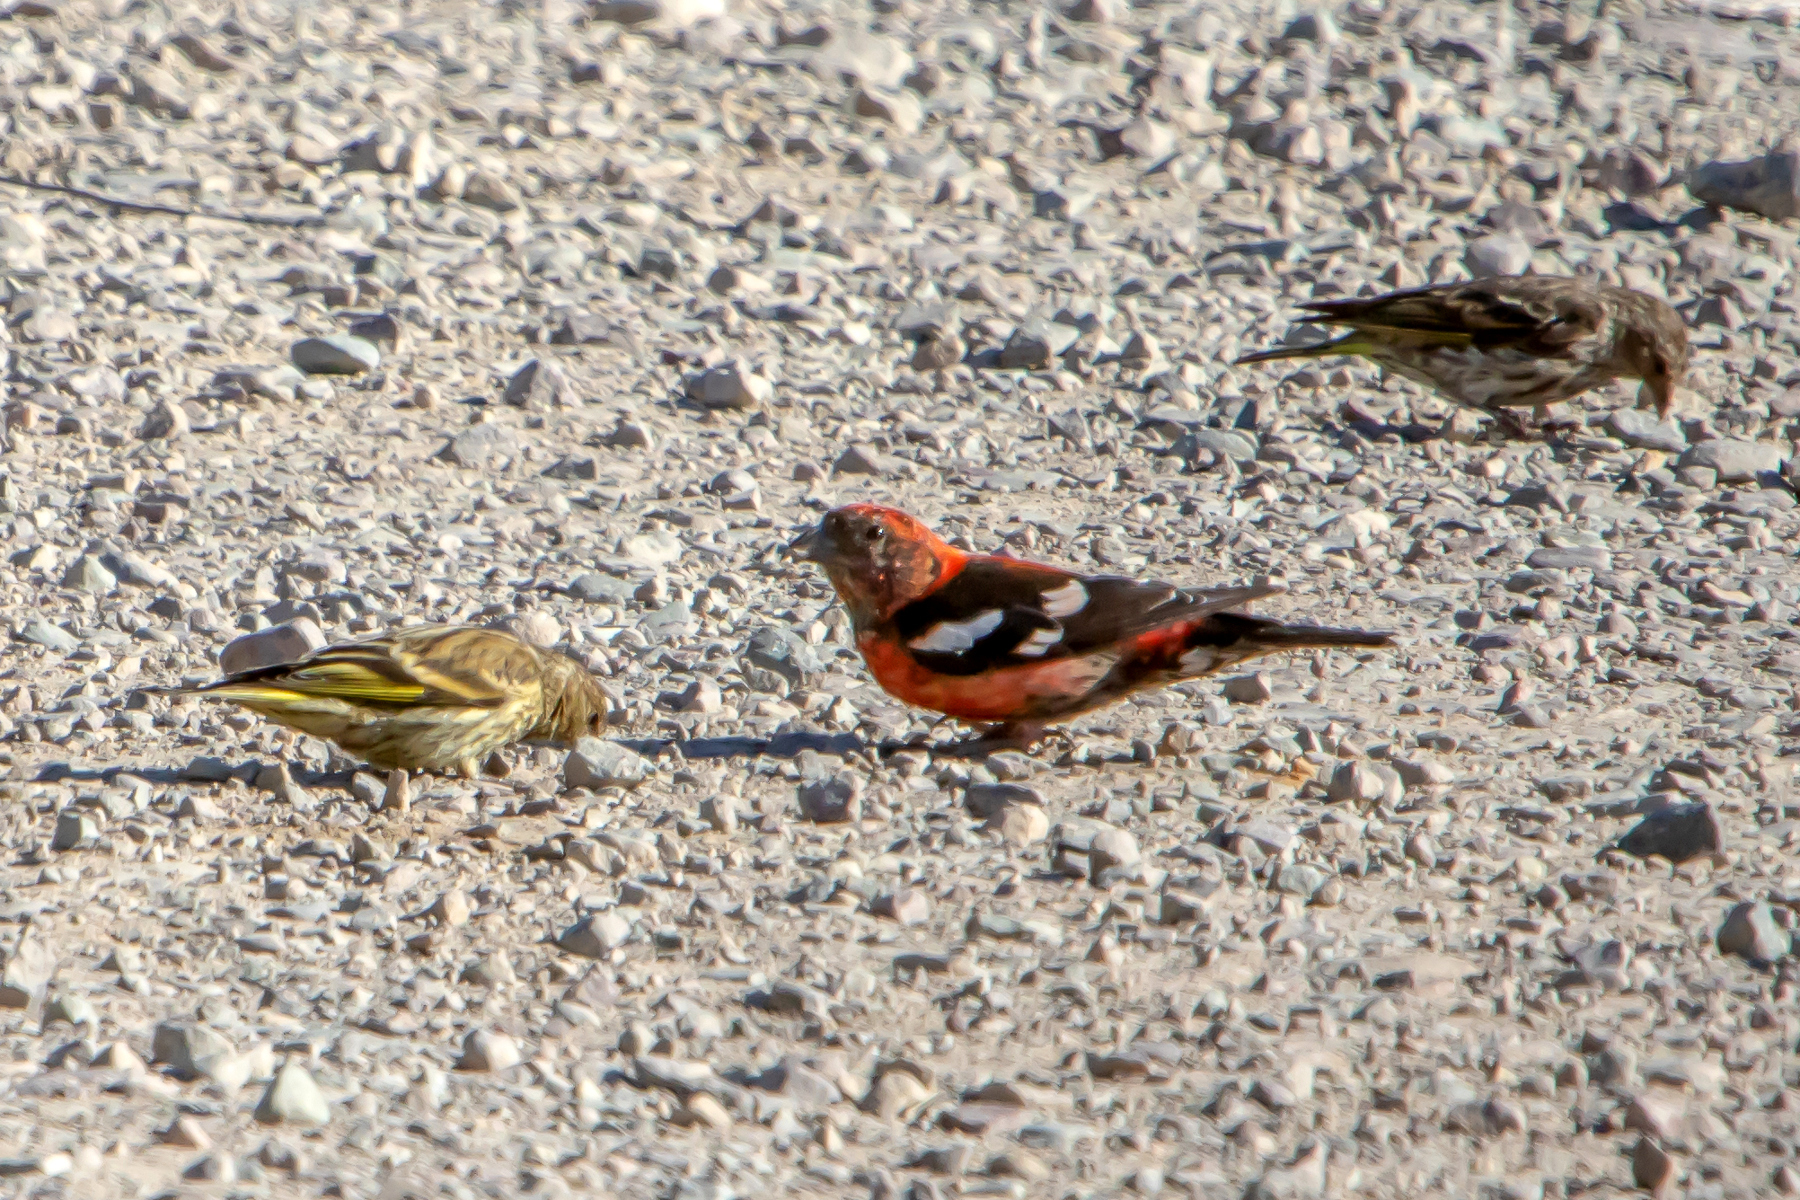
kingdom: Animalia
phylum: Chordata
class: Aves
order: Passeriformes
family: Fringillidae
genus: Loxia
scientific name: Loxia leucoptera
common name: Two-barred crossbill
